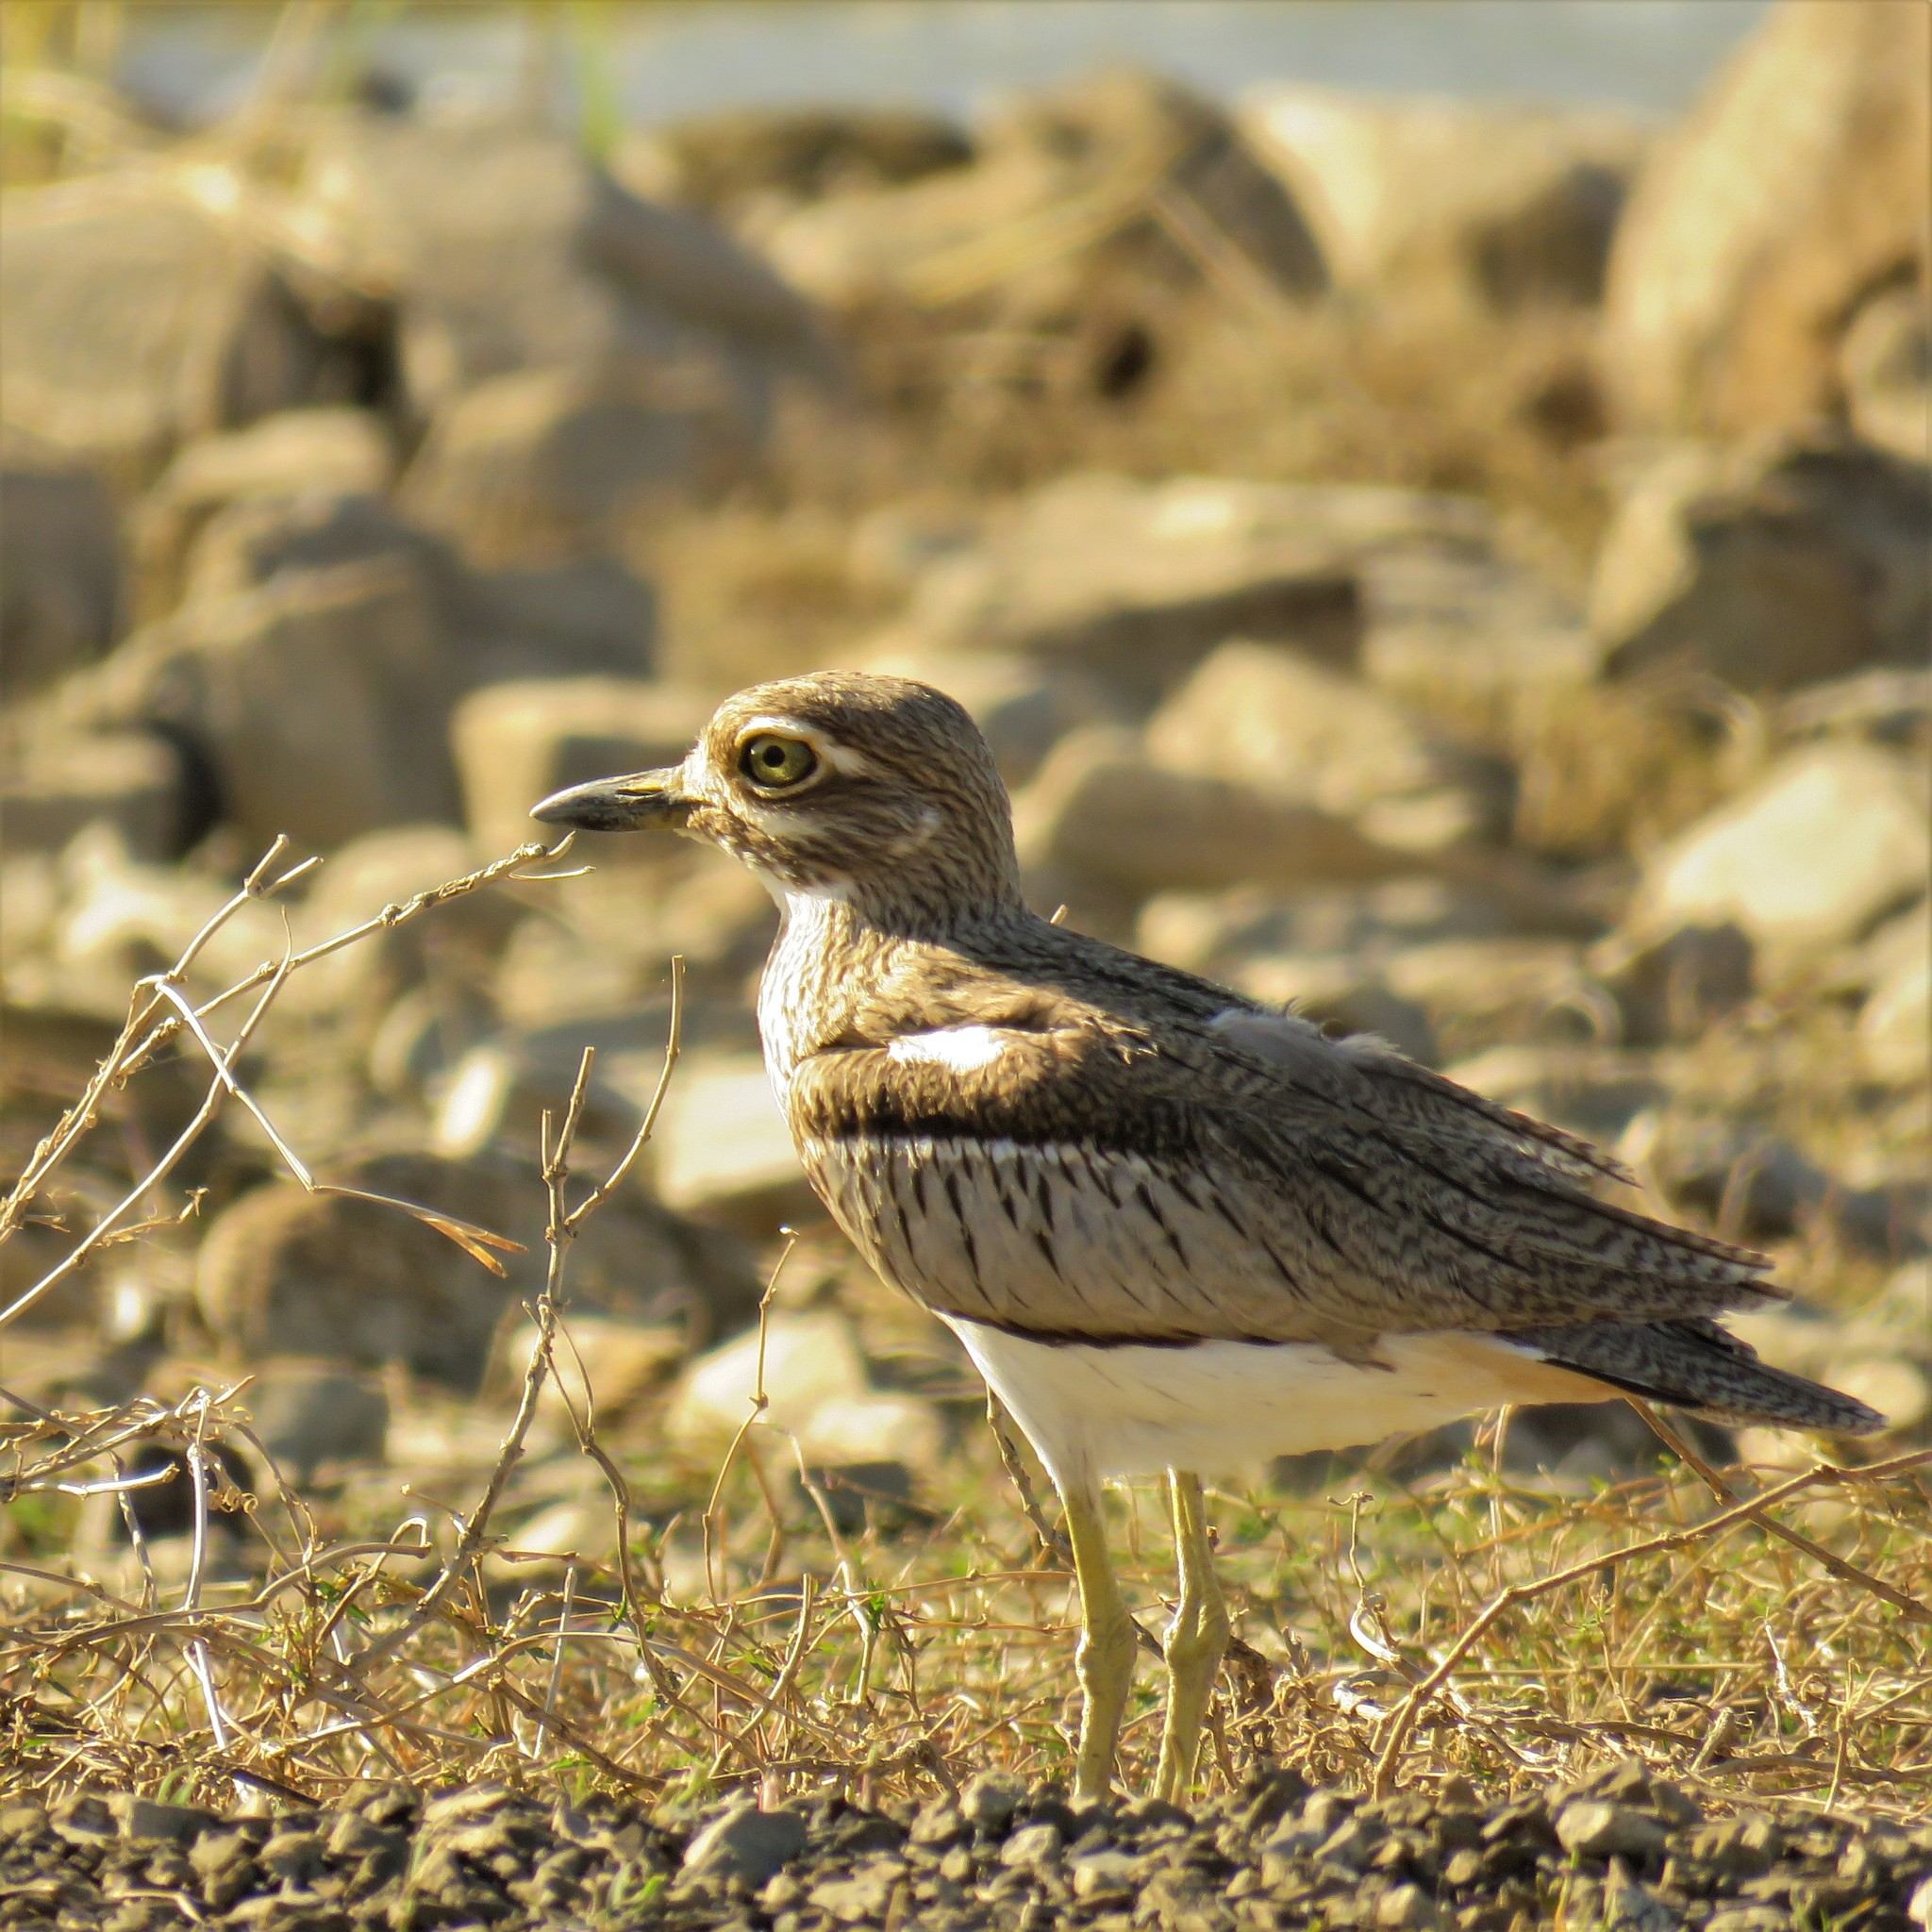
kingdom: Animalia
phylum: Chordata
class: Aves
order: Charadriiformes
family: Burhinidae
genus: Burhinus
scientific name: Burhinus vermiculatus
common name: Water thick-knee
